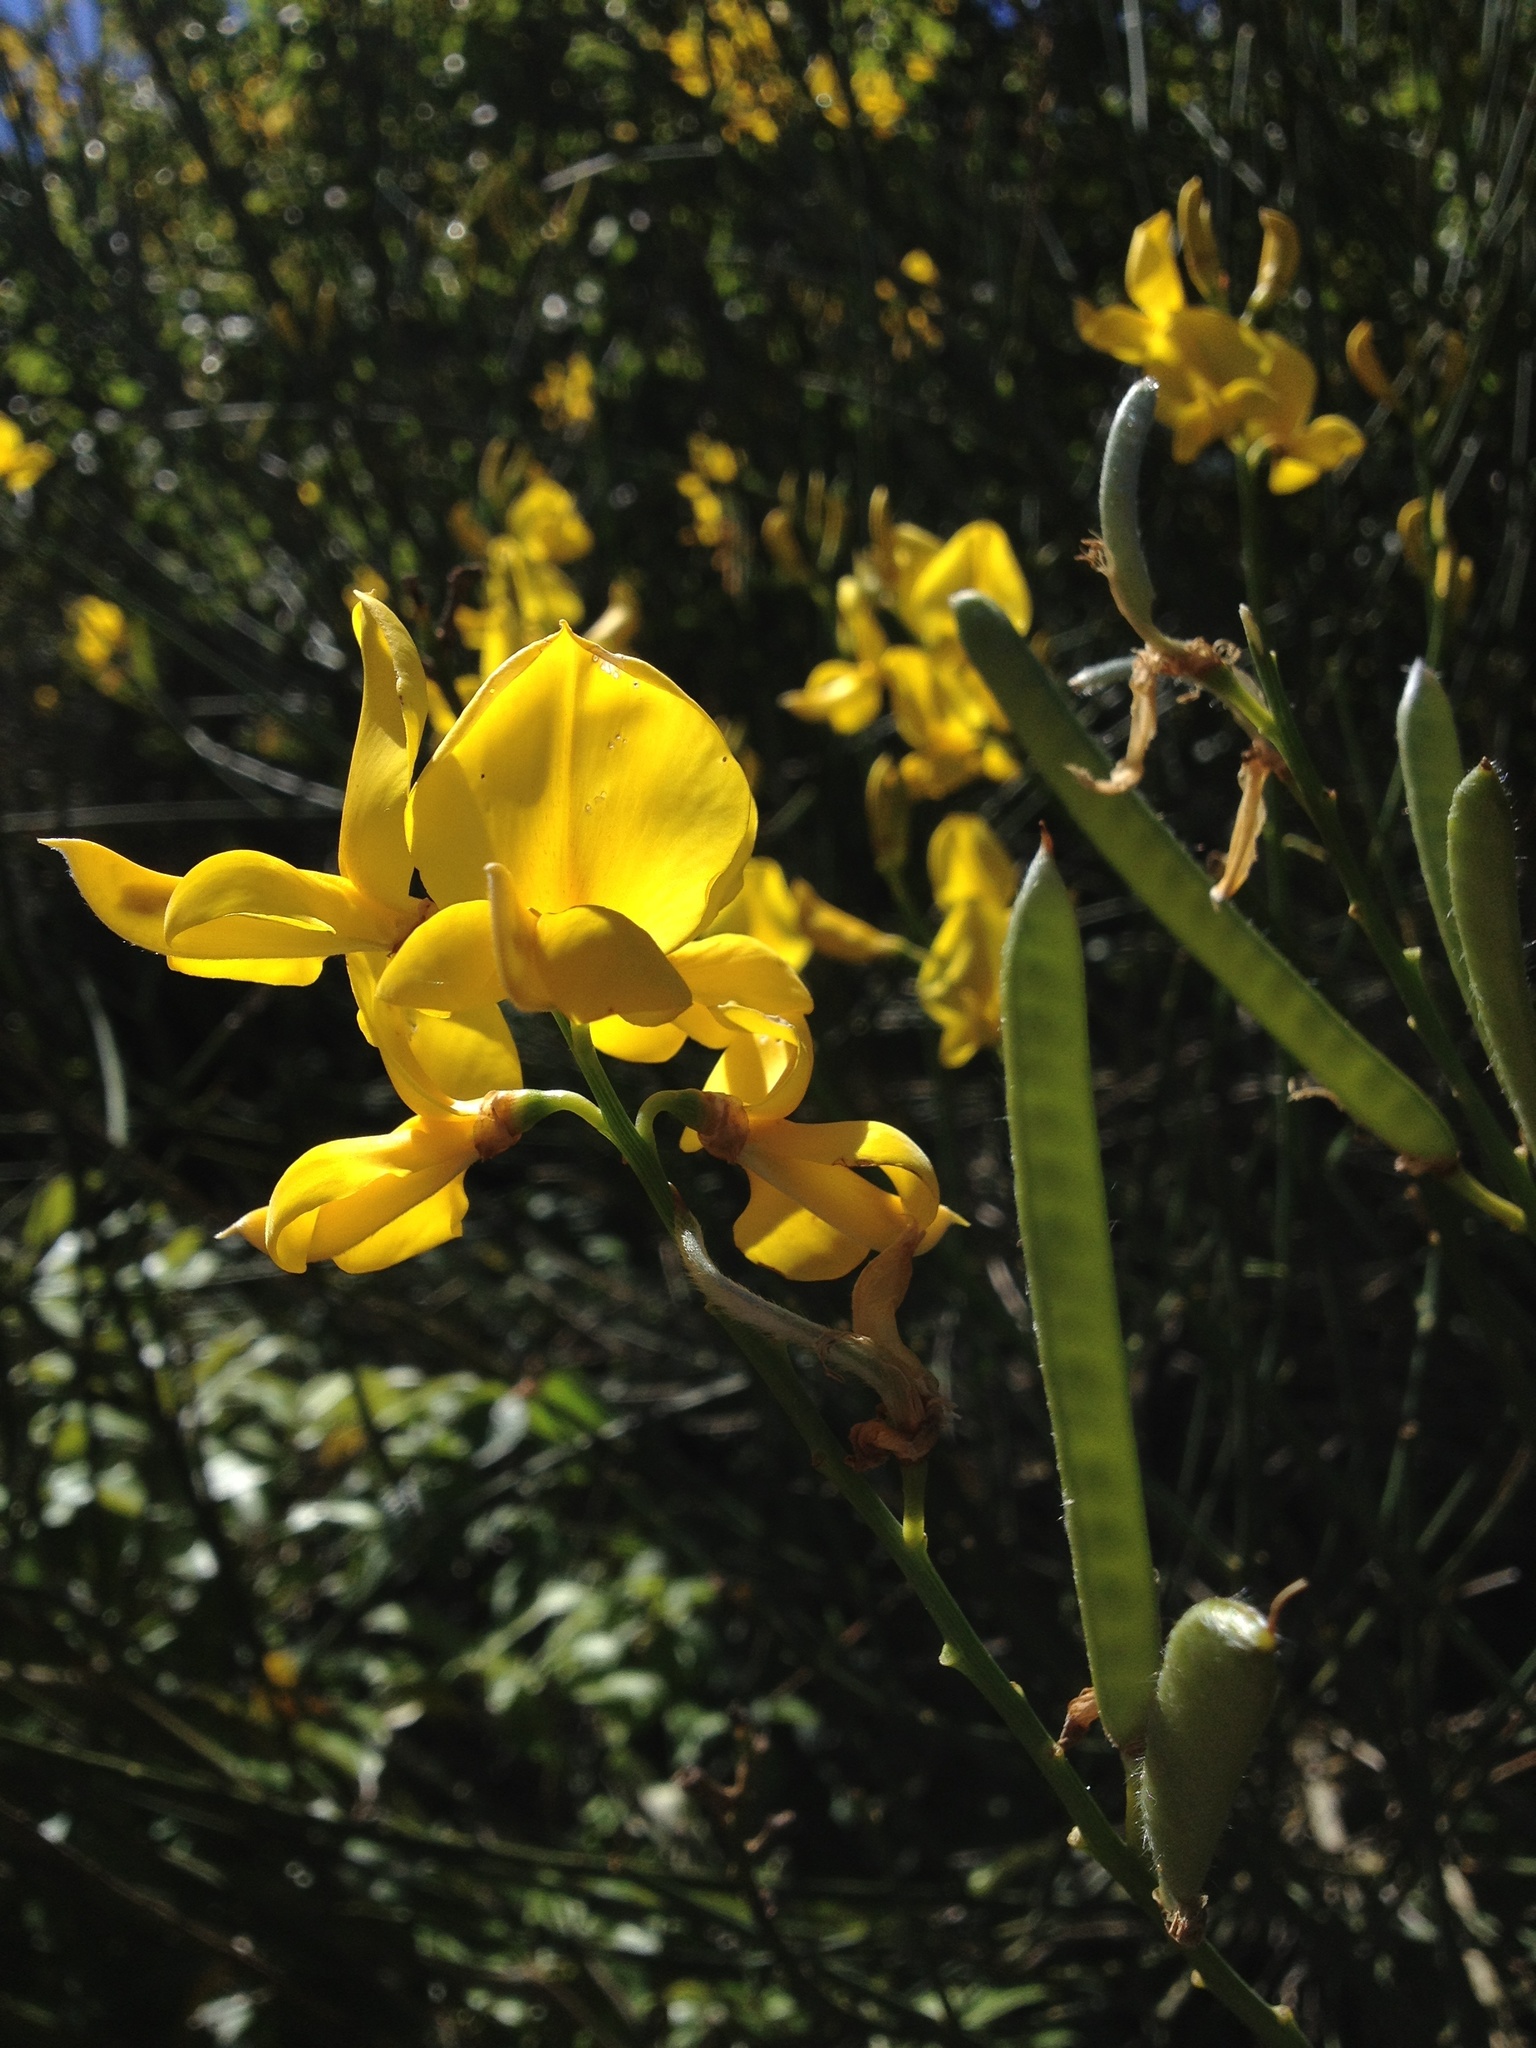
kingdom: Plantae
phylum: Tracheophyta
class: Magnoliopsida
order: Fabales
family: Fabaceae
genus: Spartium
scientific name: Spartium junceum
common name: Spanish broom
